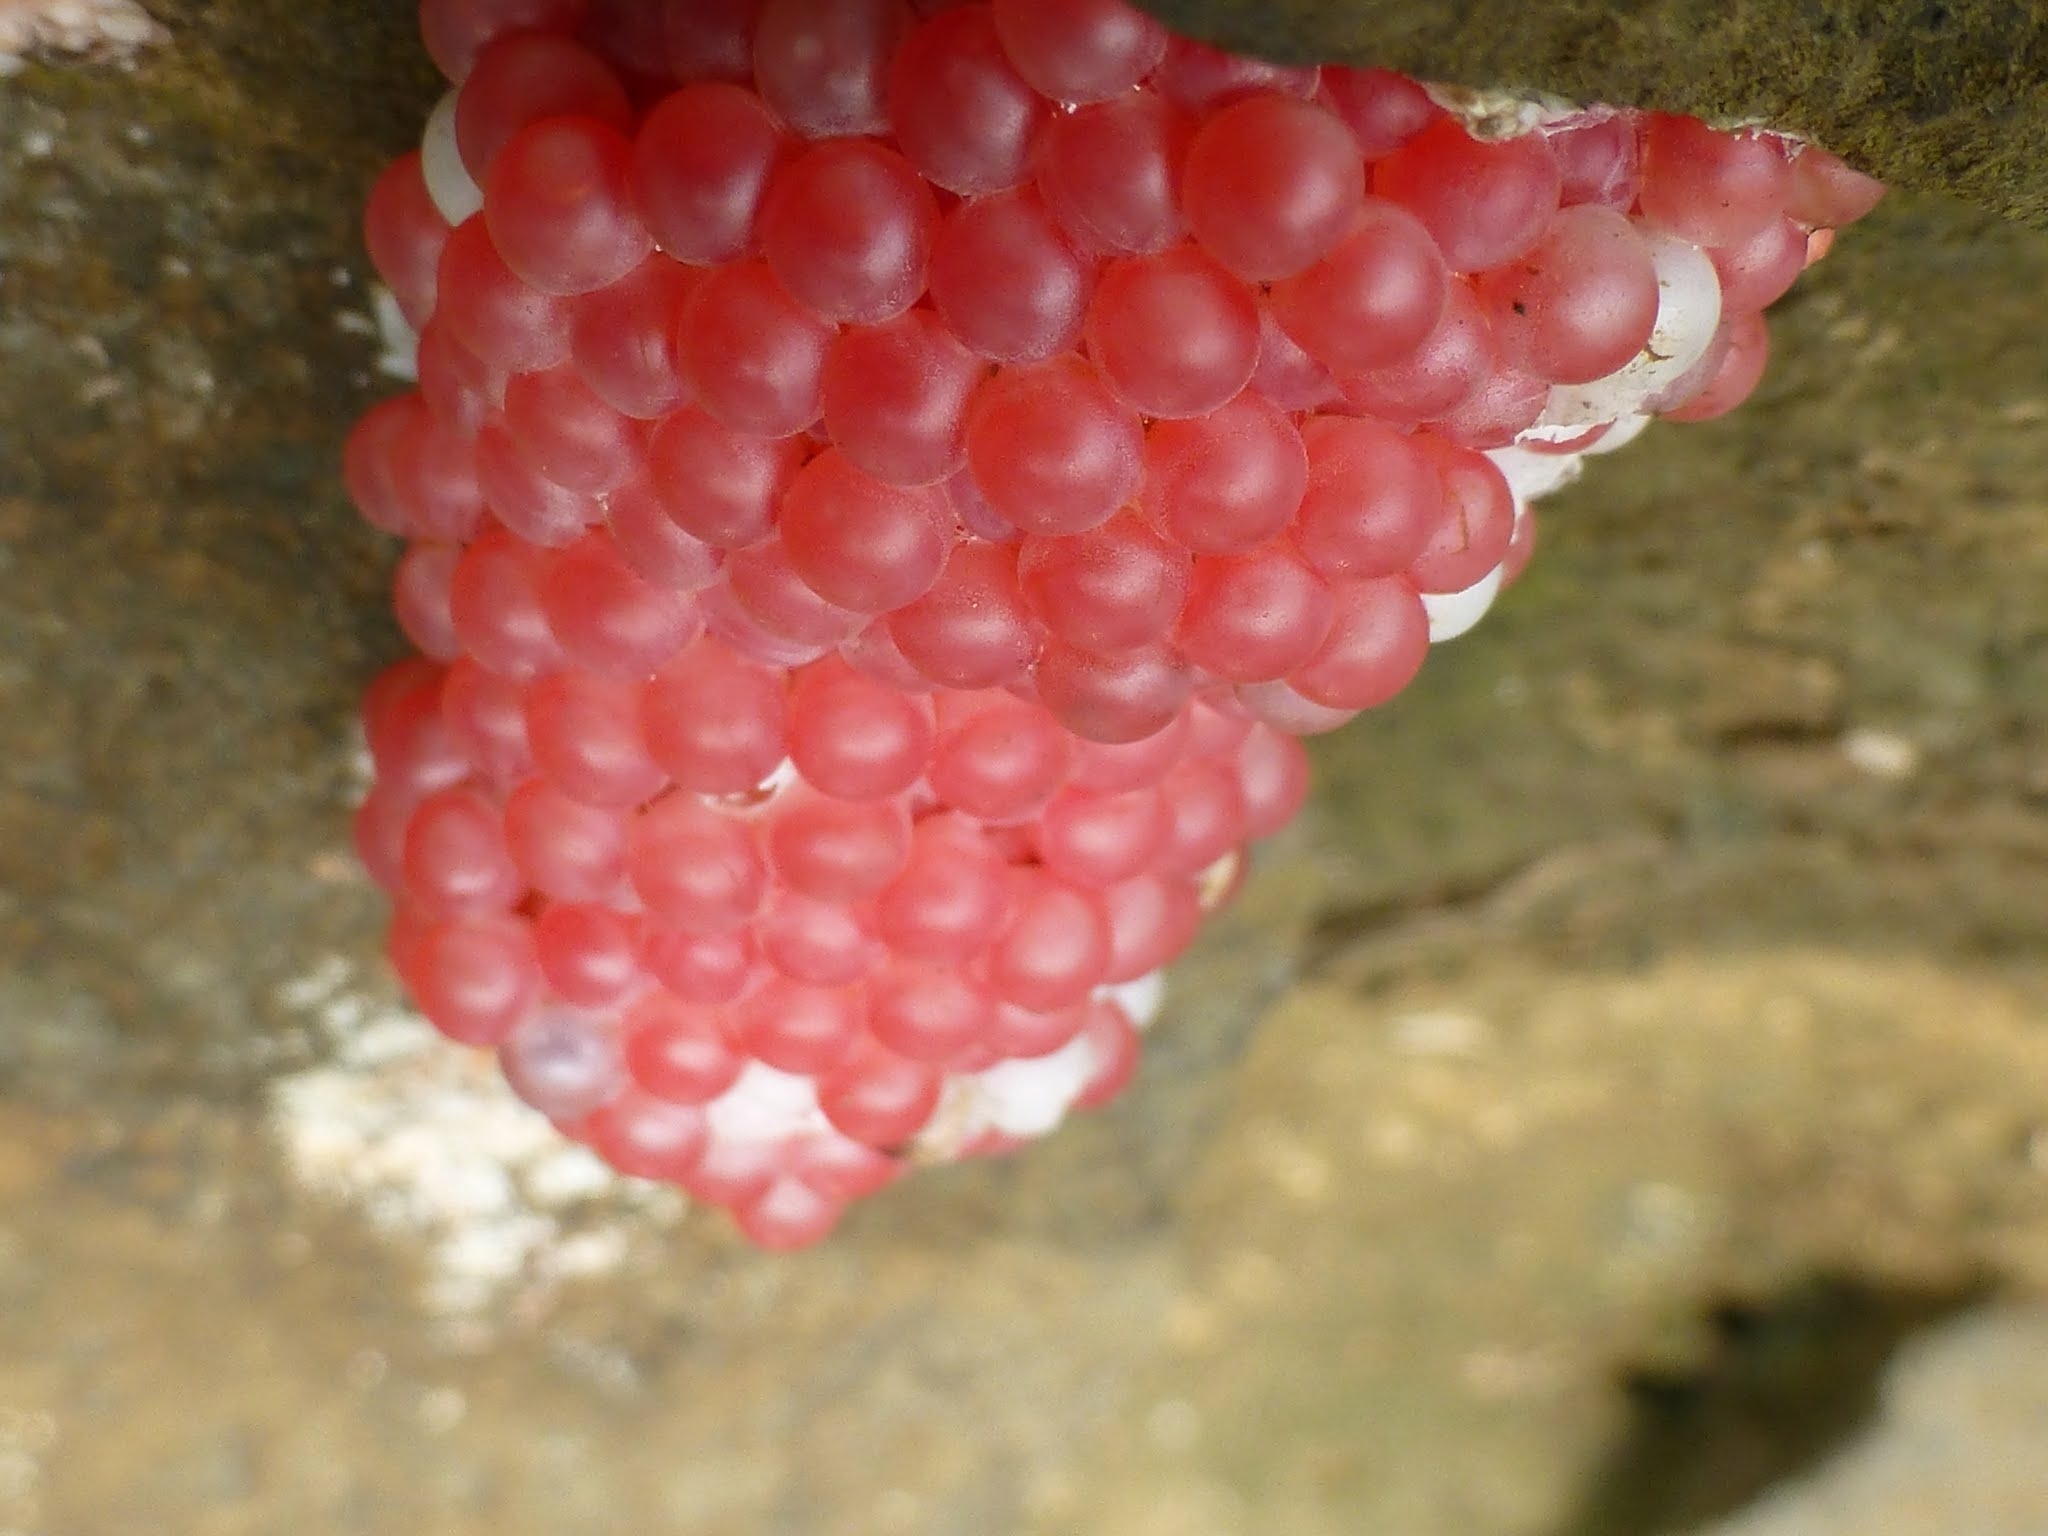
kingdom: Animalia
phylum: Mollusca
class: Gastropoda
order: Architaenioglossa
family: Ampullariidae
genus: Pomacea
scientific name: Pomacea canaliculata
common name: Channeled applesnail
